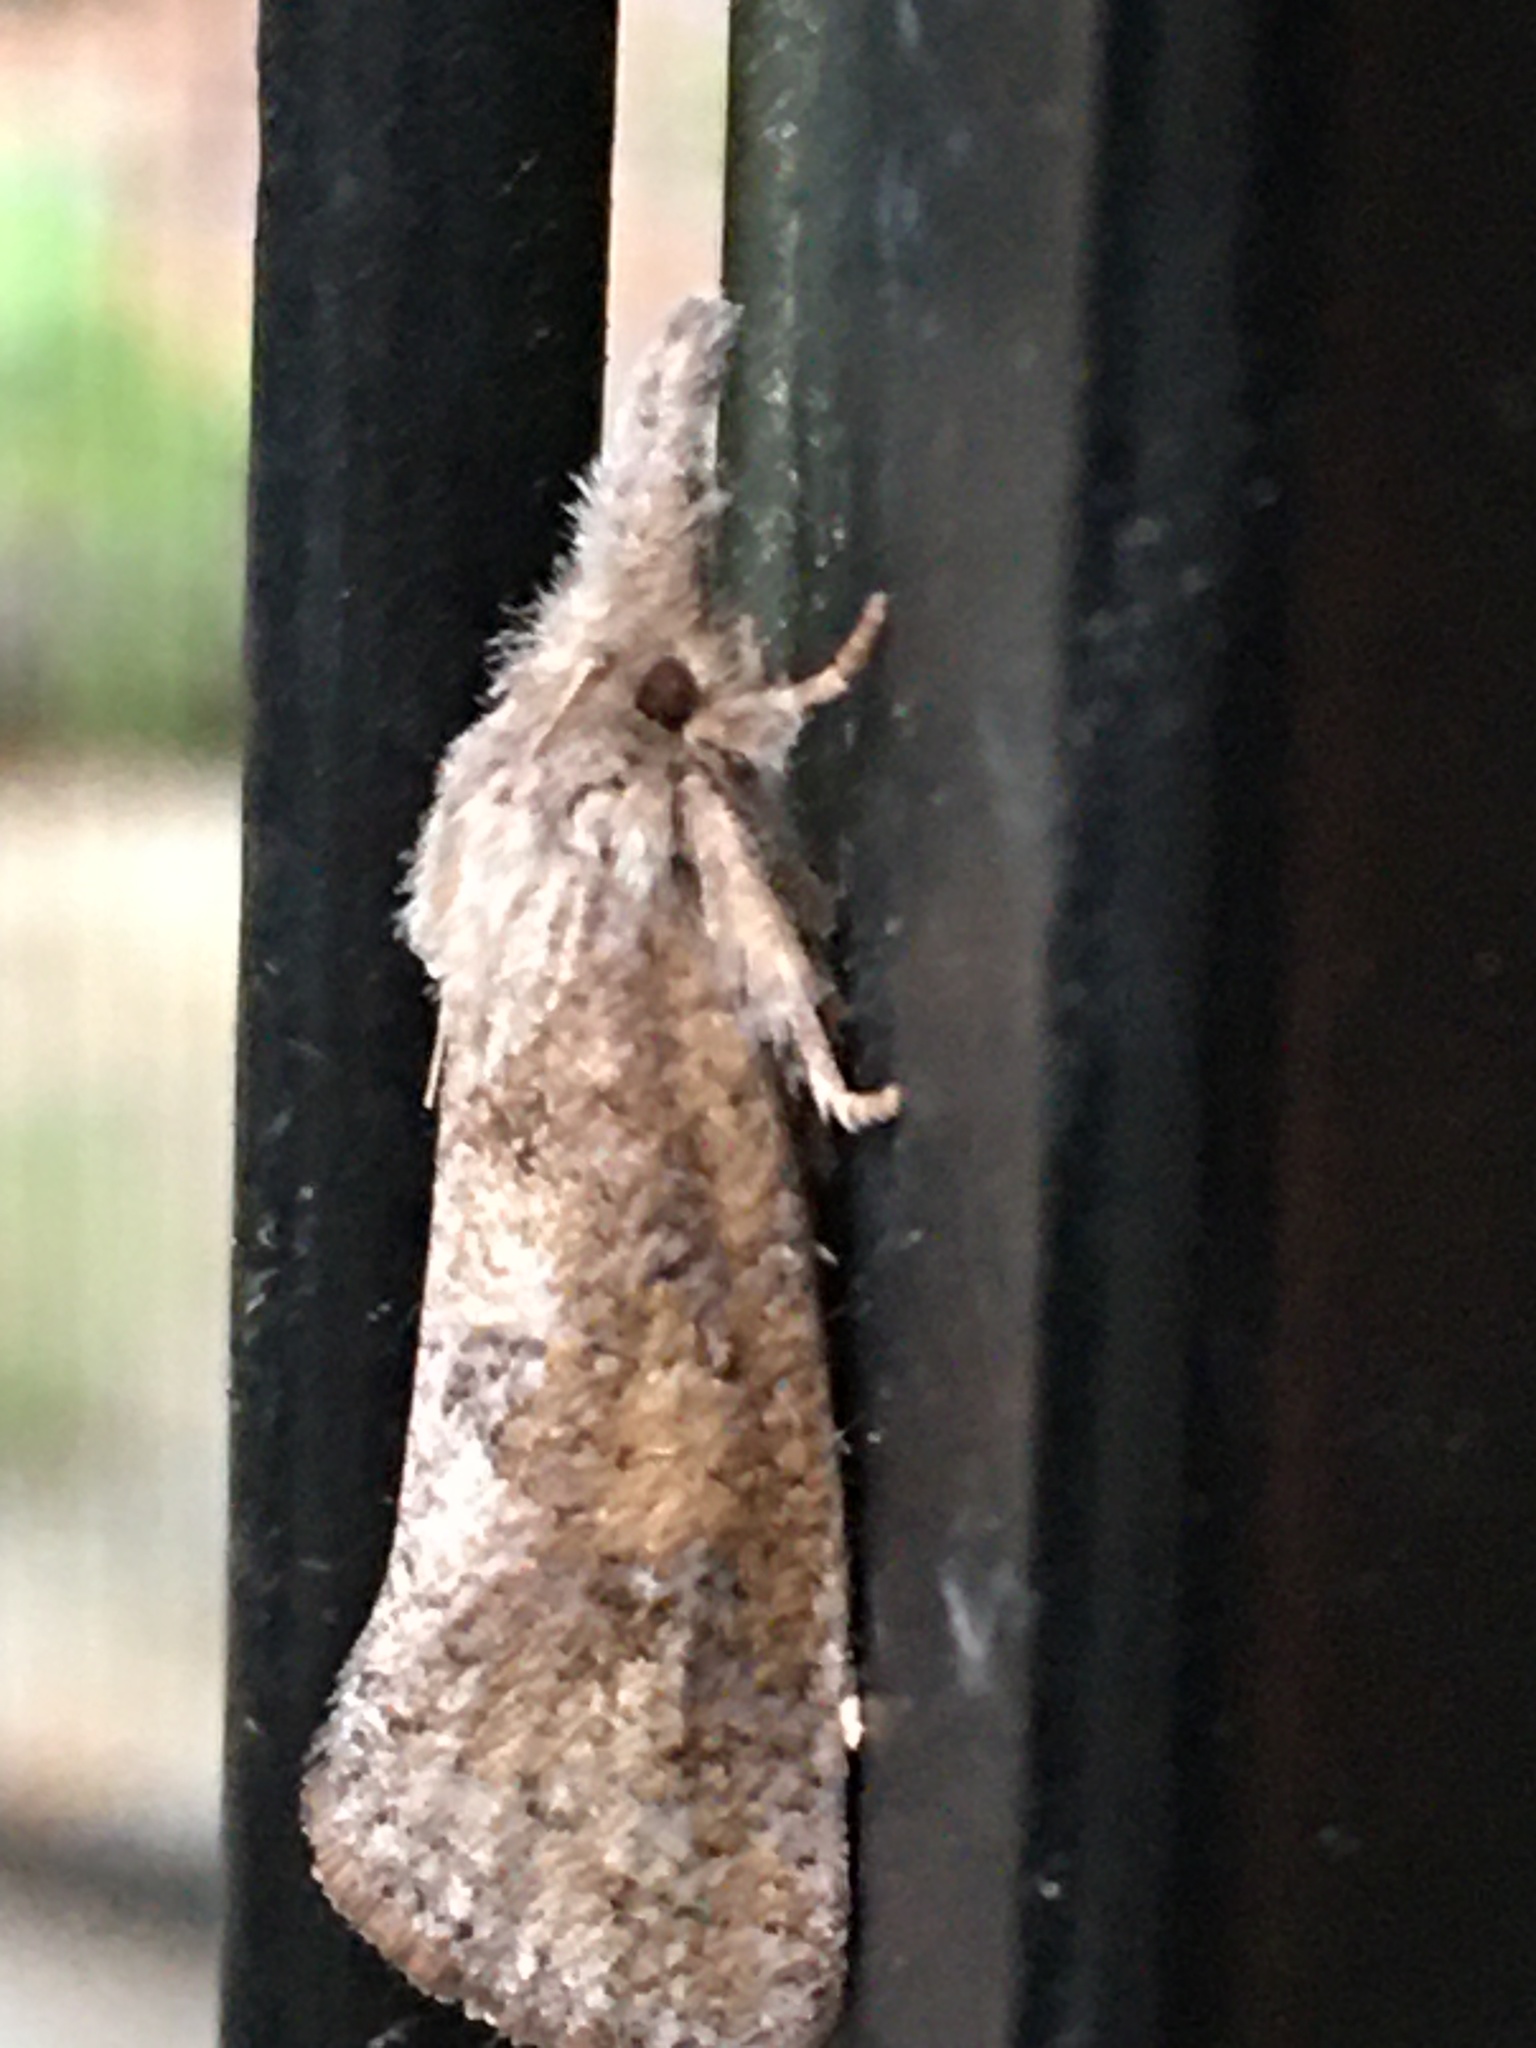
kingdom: Animalia
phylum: Arthropoda
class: Insecta
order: Lepidoptera
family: Tineidae
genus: Acrolophus
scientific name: Acrolophus plumifrontella
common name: Eastern grass tubeworm moth
